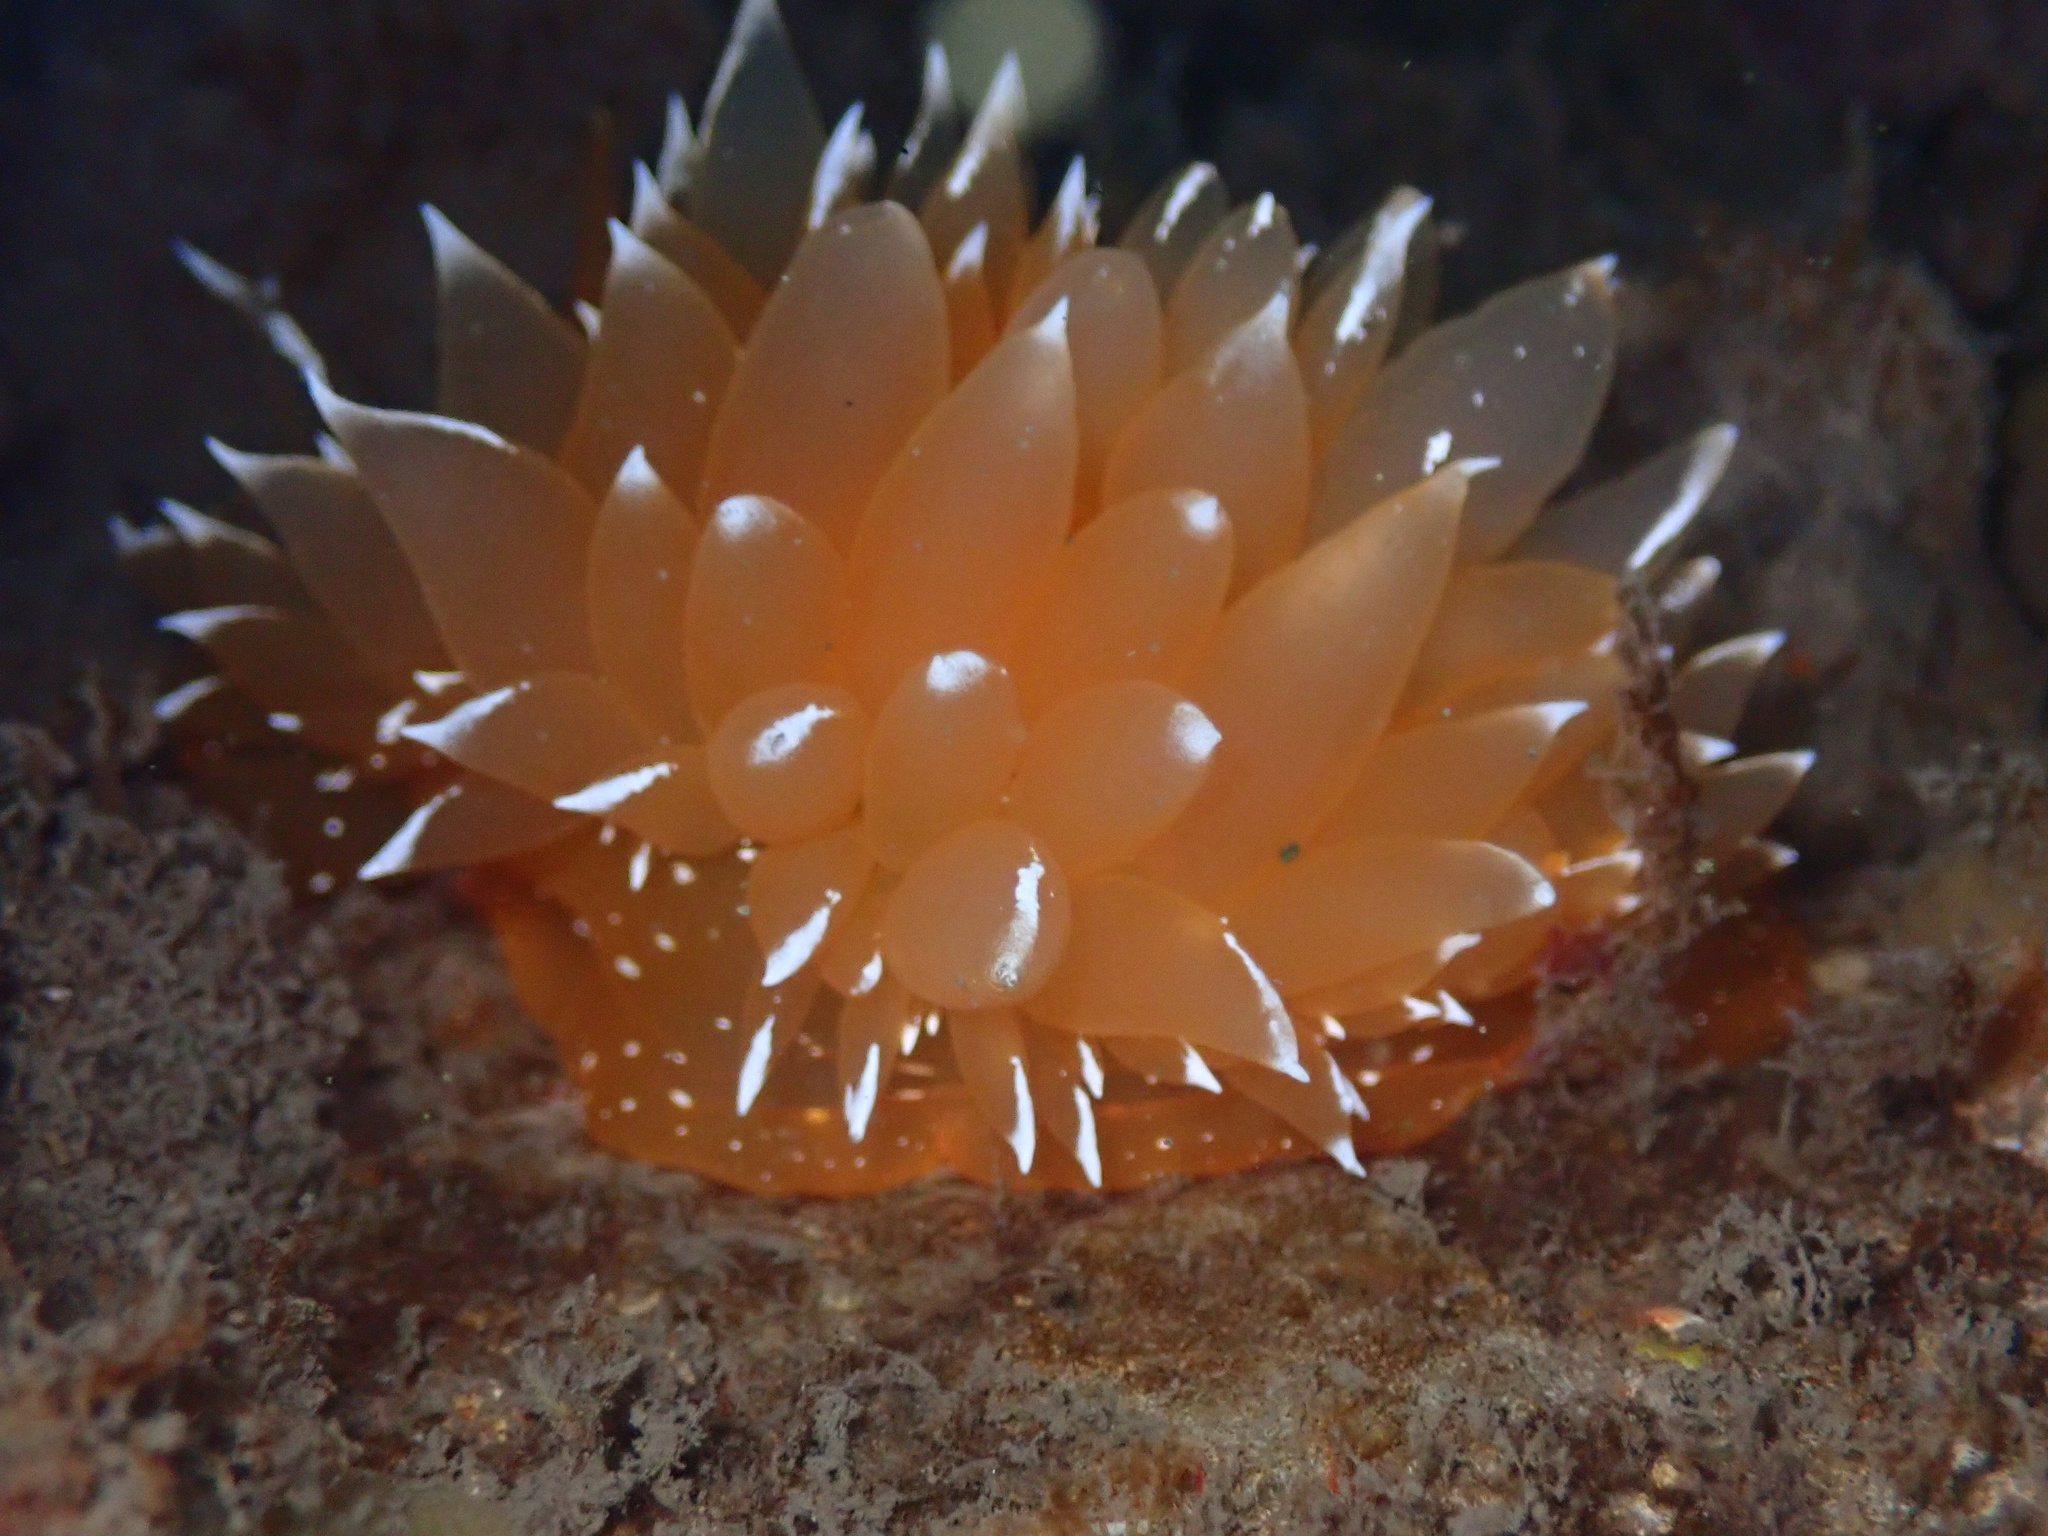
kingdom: Animalia
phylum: Mollusca
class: Gastropoda
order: Nudibranchia
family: Dironidae
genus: Dirona
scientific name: Dirona pellucida
